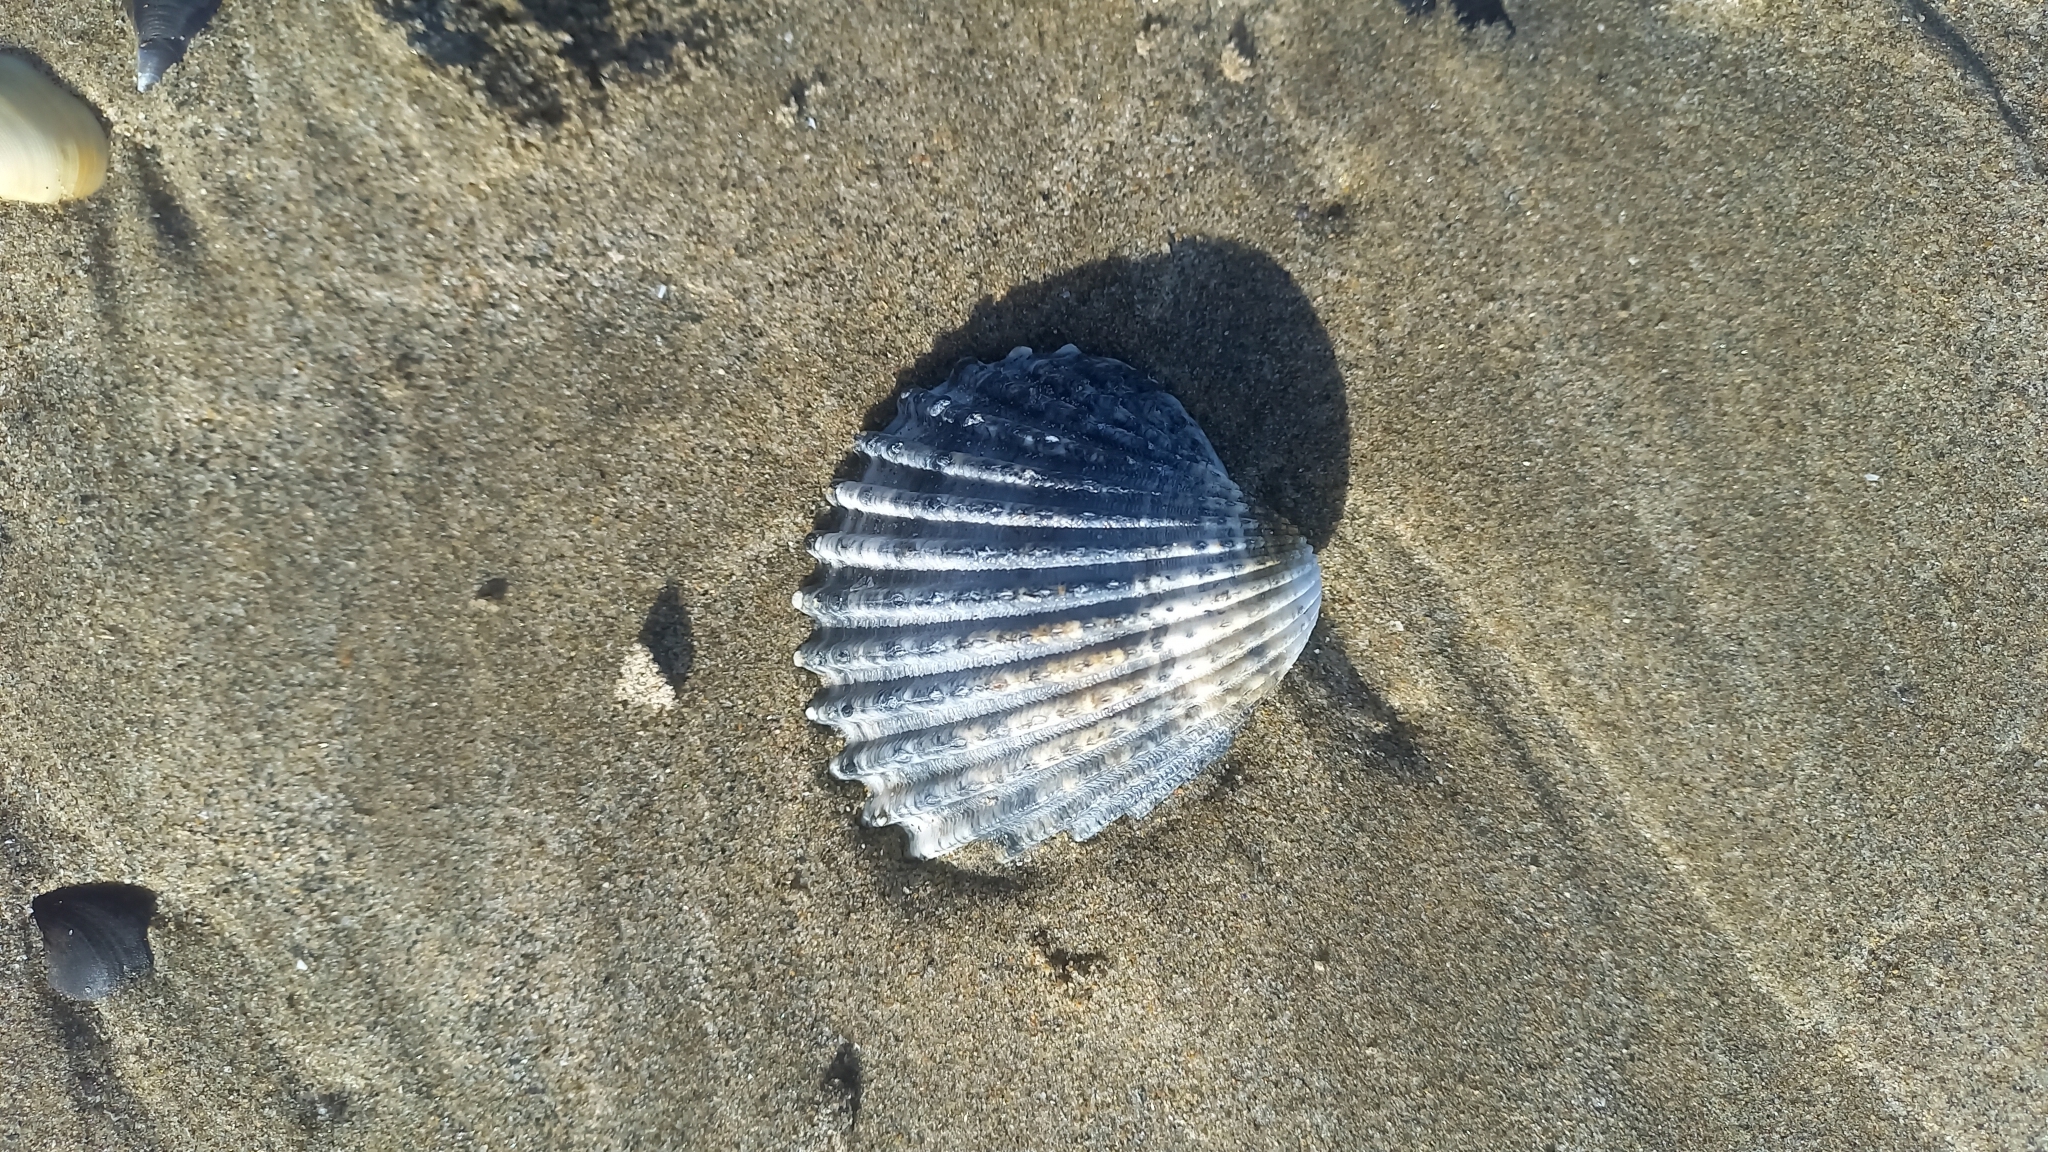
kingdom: Animalia
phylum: Mollusca
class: Bivalvia
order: Cardiida
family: Cardiidae
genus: Acanthocardia
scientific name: Acanthocardia echinata
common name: Prickly cockle
